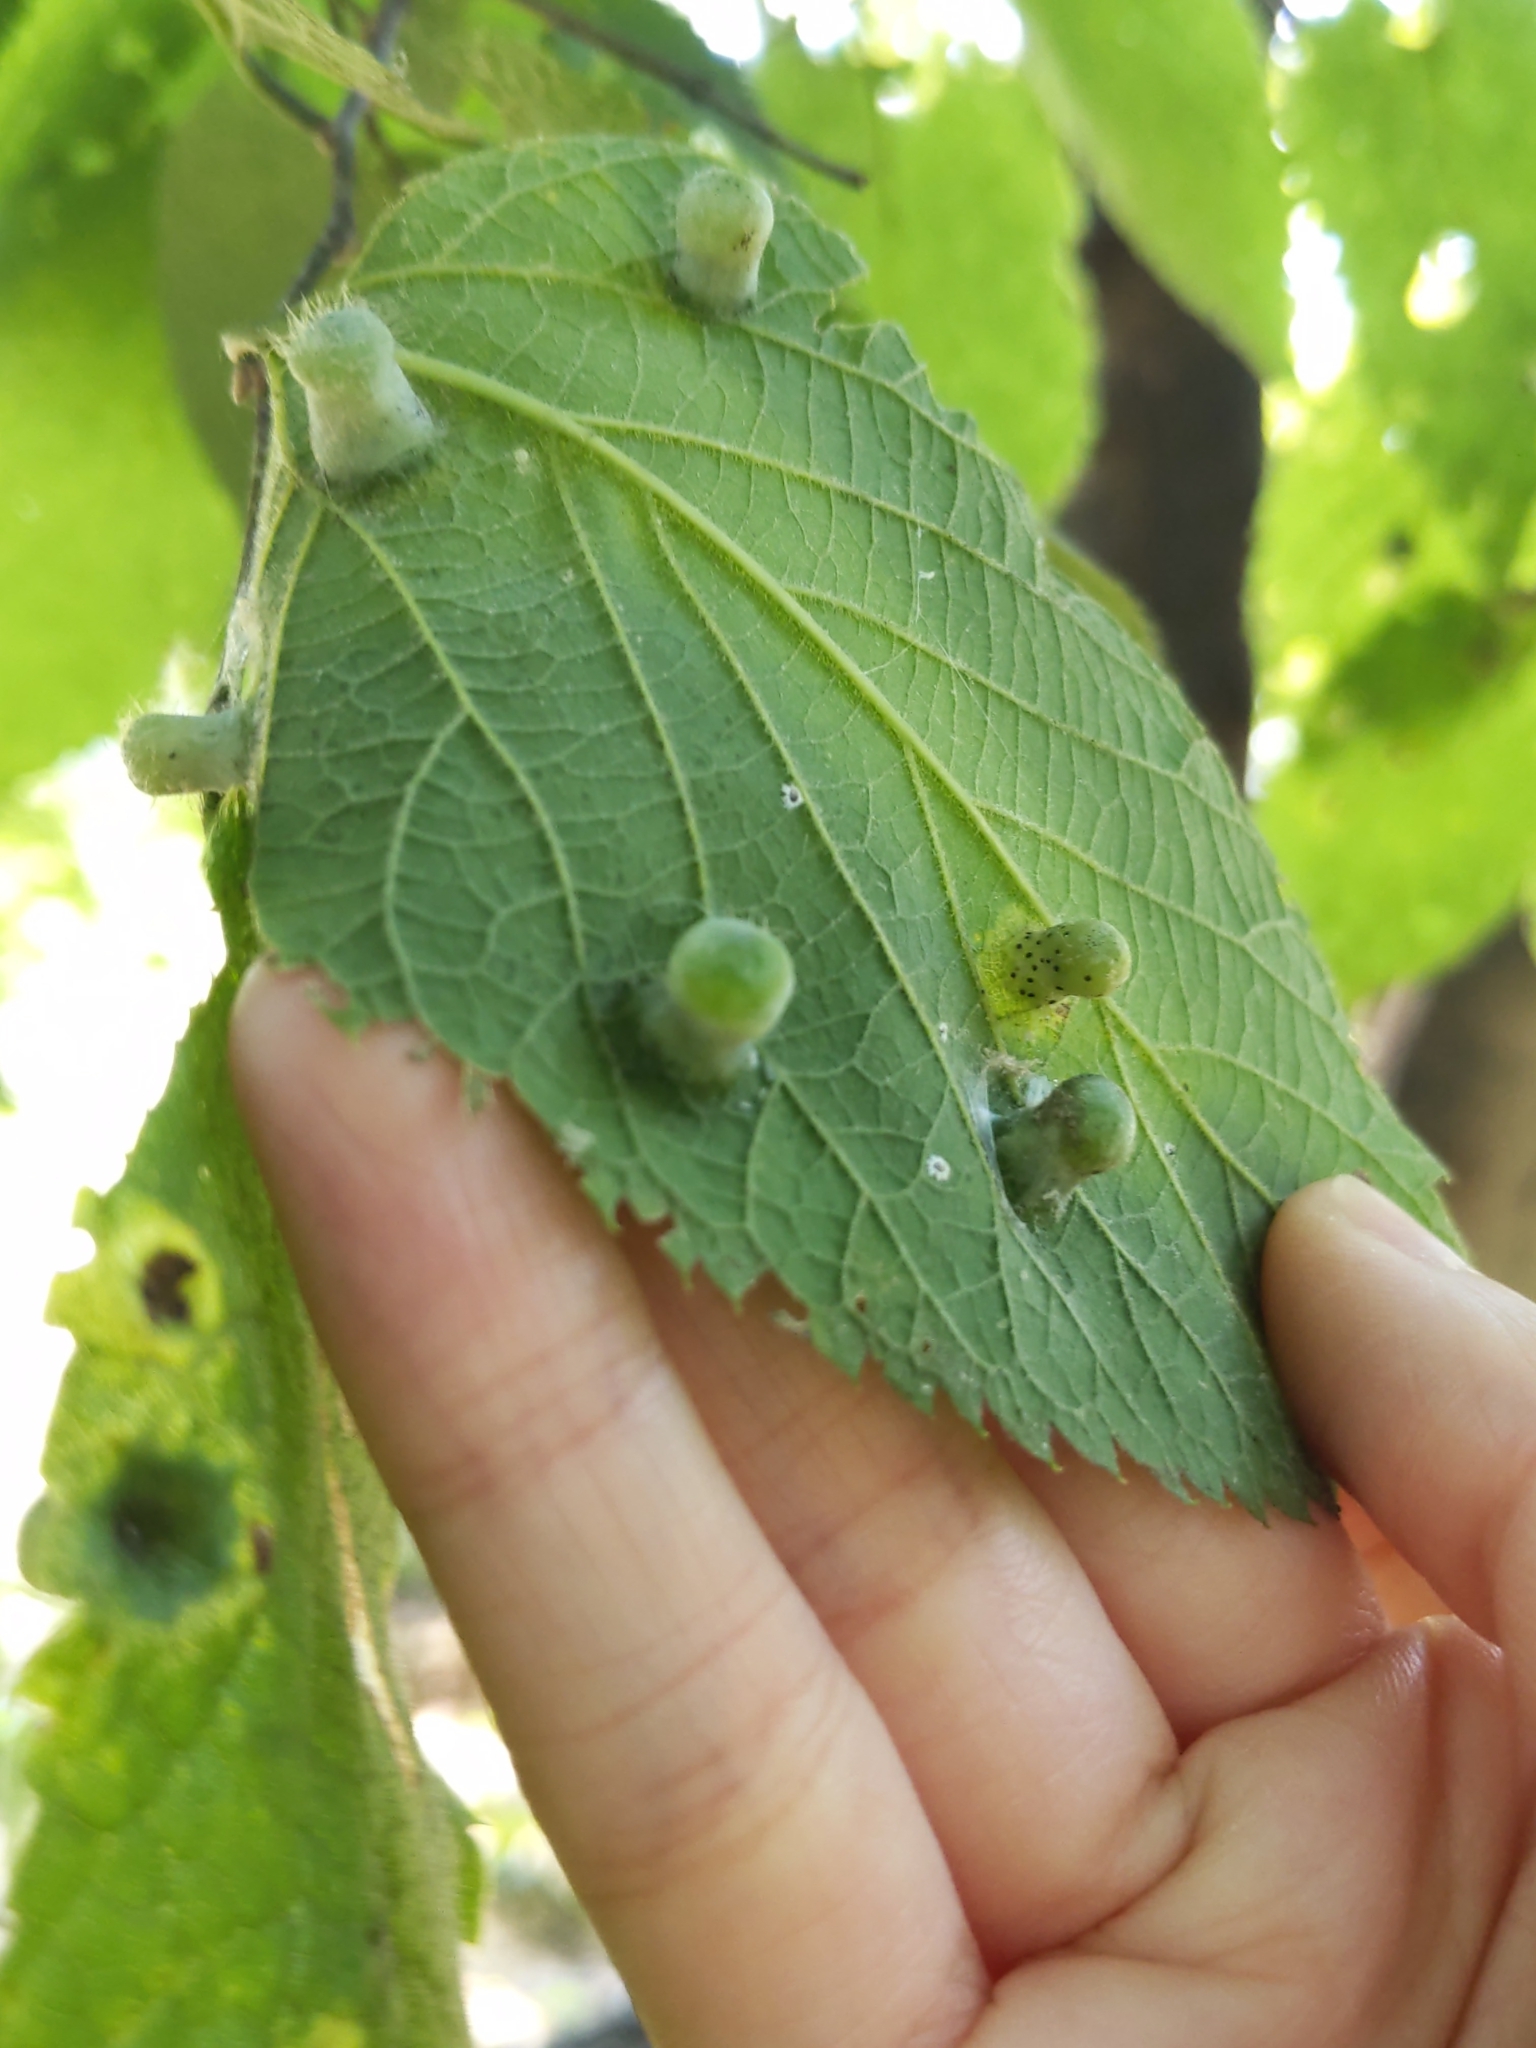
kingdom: Animalia
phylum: Arthropoda
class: Insecta
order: Hemiptera
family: Aphalaridae
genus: Pachypsylla
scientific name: Pachypsylla celtidismamma
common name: Hackberry nipplegall psyllid
